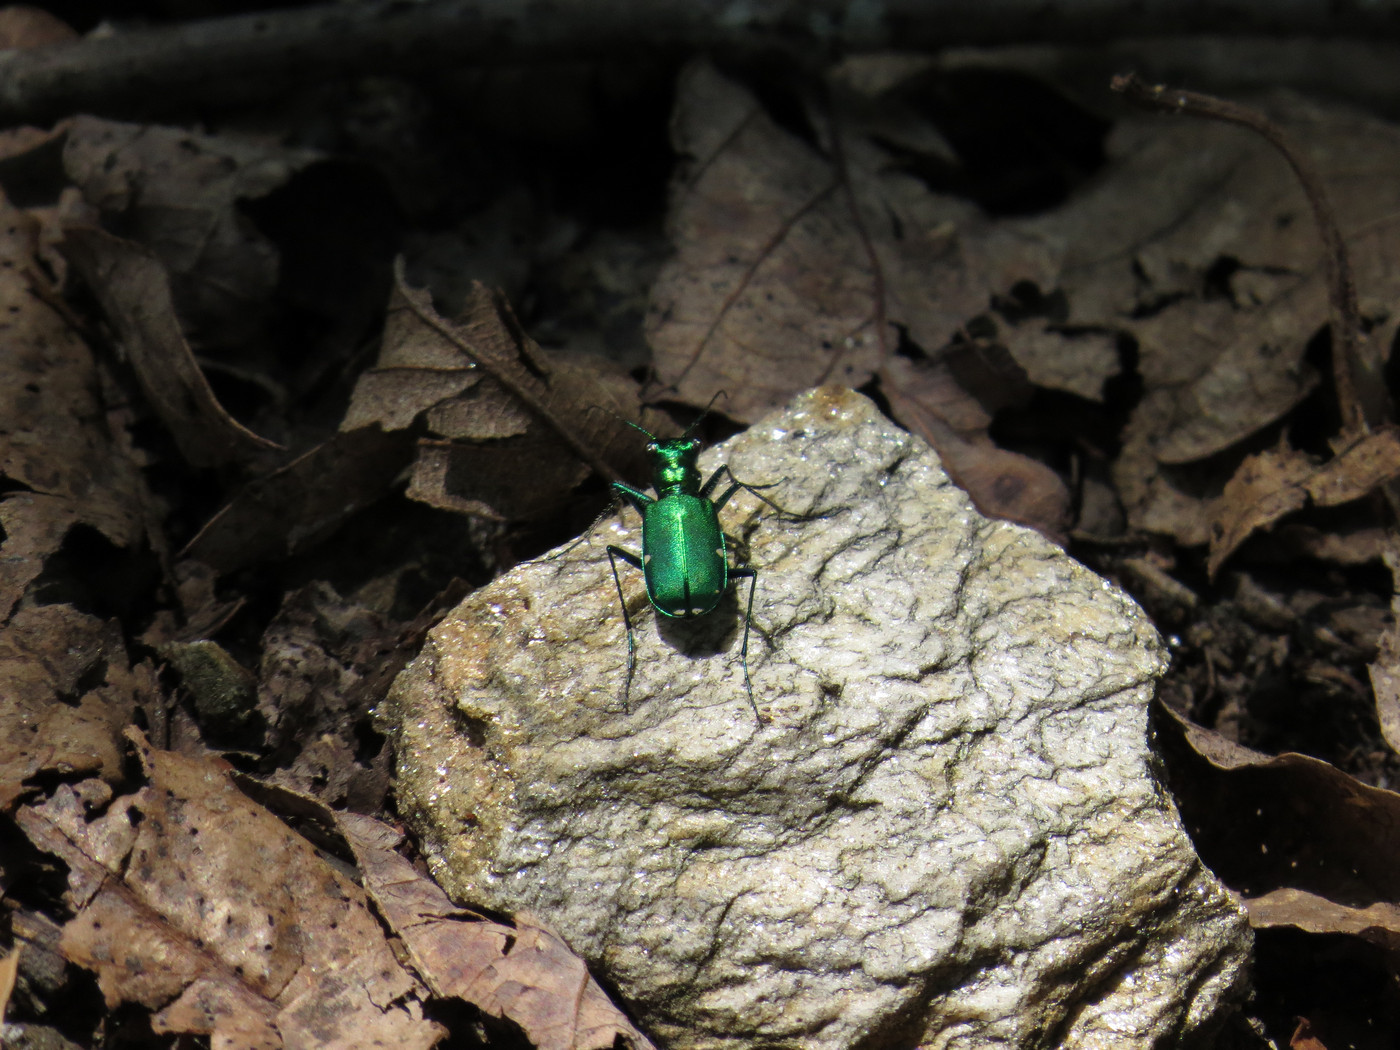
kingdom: Animalia
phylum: Arthropoda
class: Insecta
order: Coleoptera
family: Carabidae
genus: Cicindela
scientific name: Cicindela sexguttata
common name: Six-spotted tiger beetle
